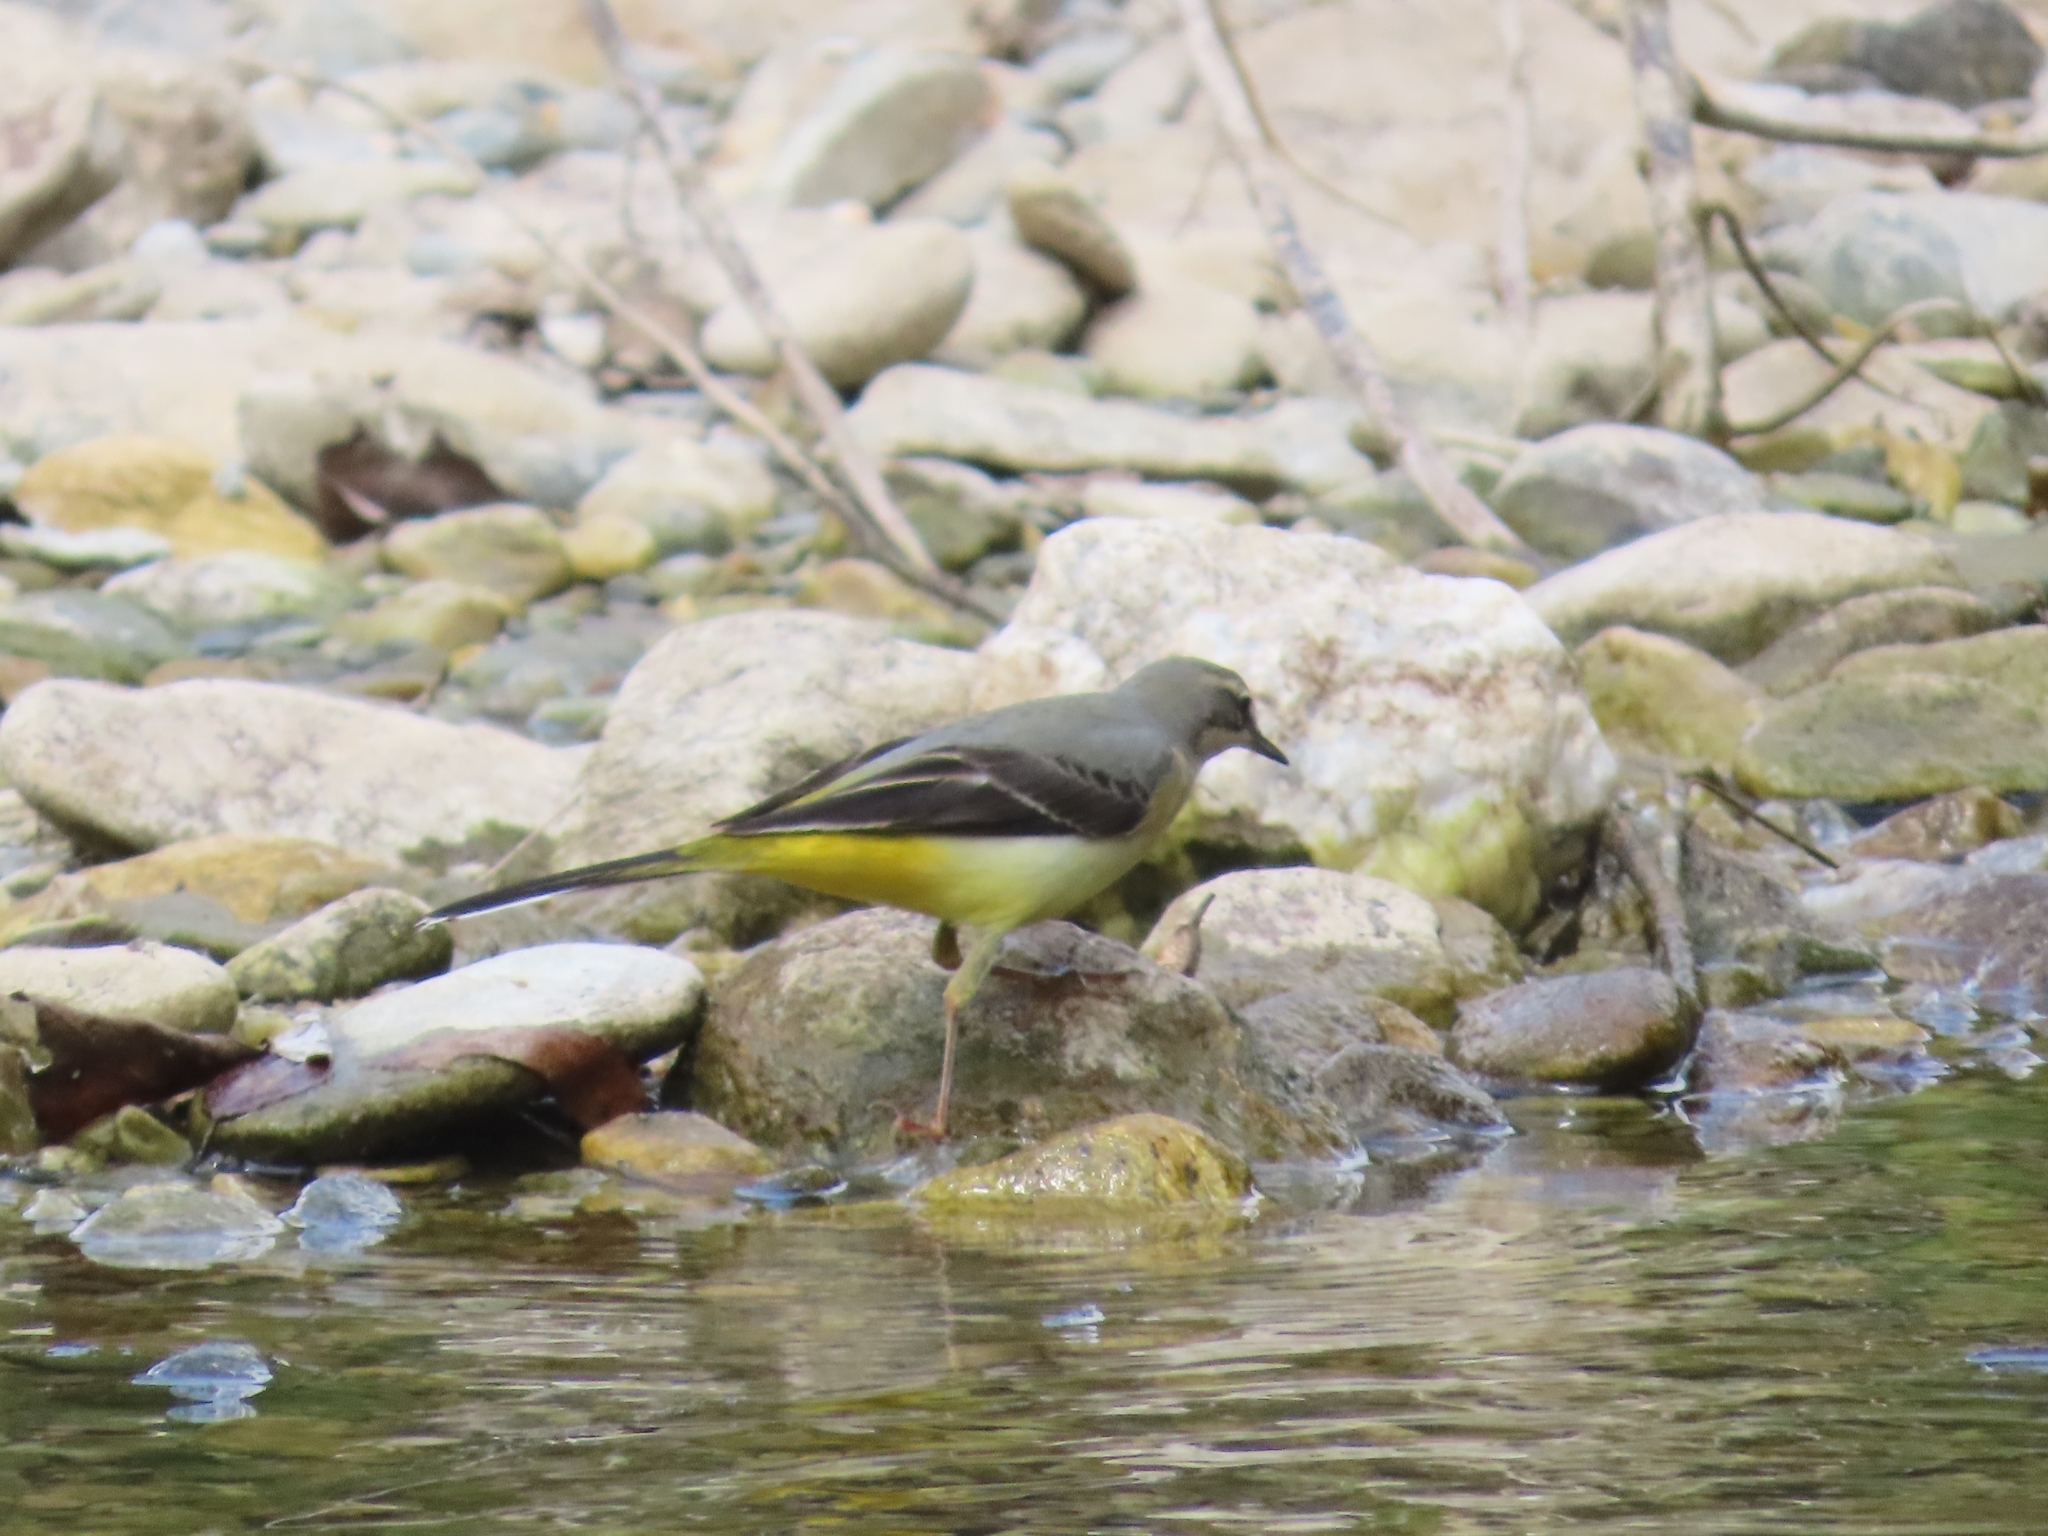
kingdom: Animalia
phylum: Chordata
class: Aves
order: Passeriformes
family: Motacillidae
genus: Motacilla
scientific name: Motacilla cinerea
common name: Grey wagtail
